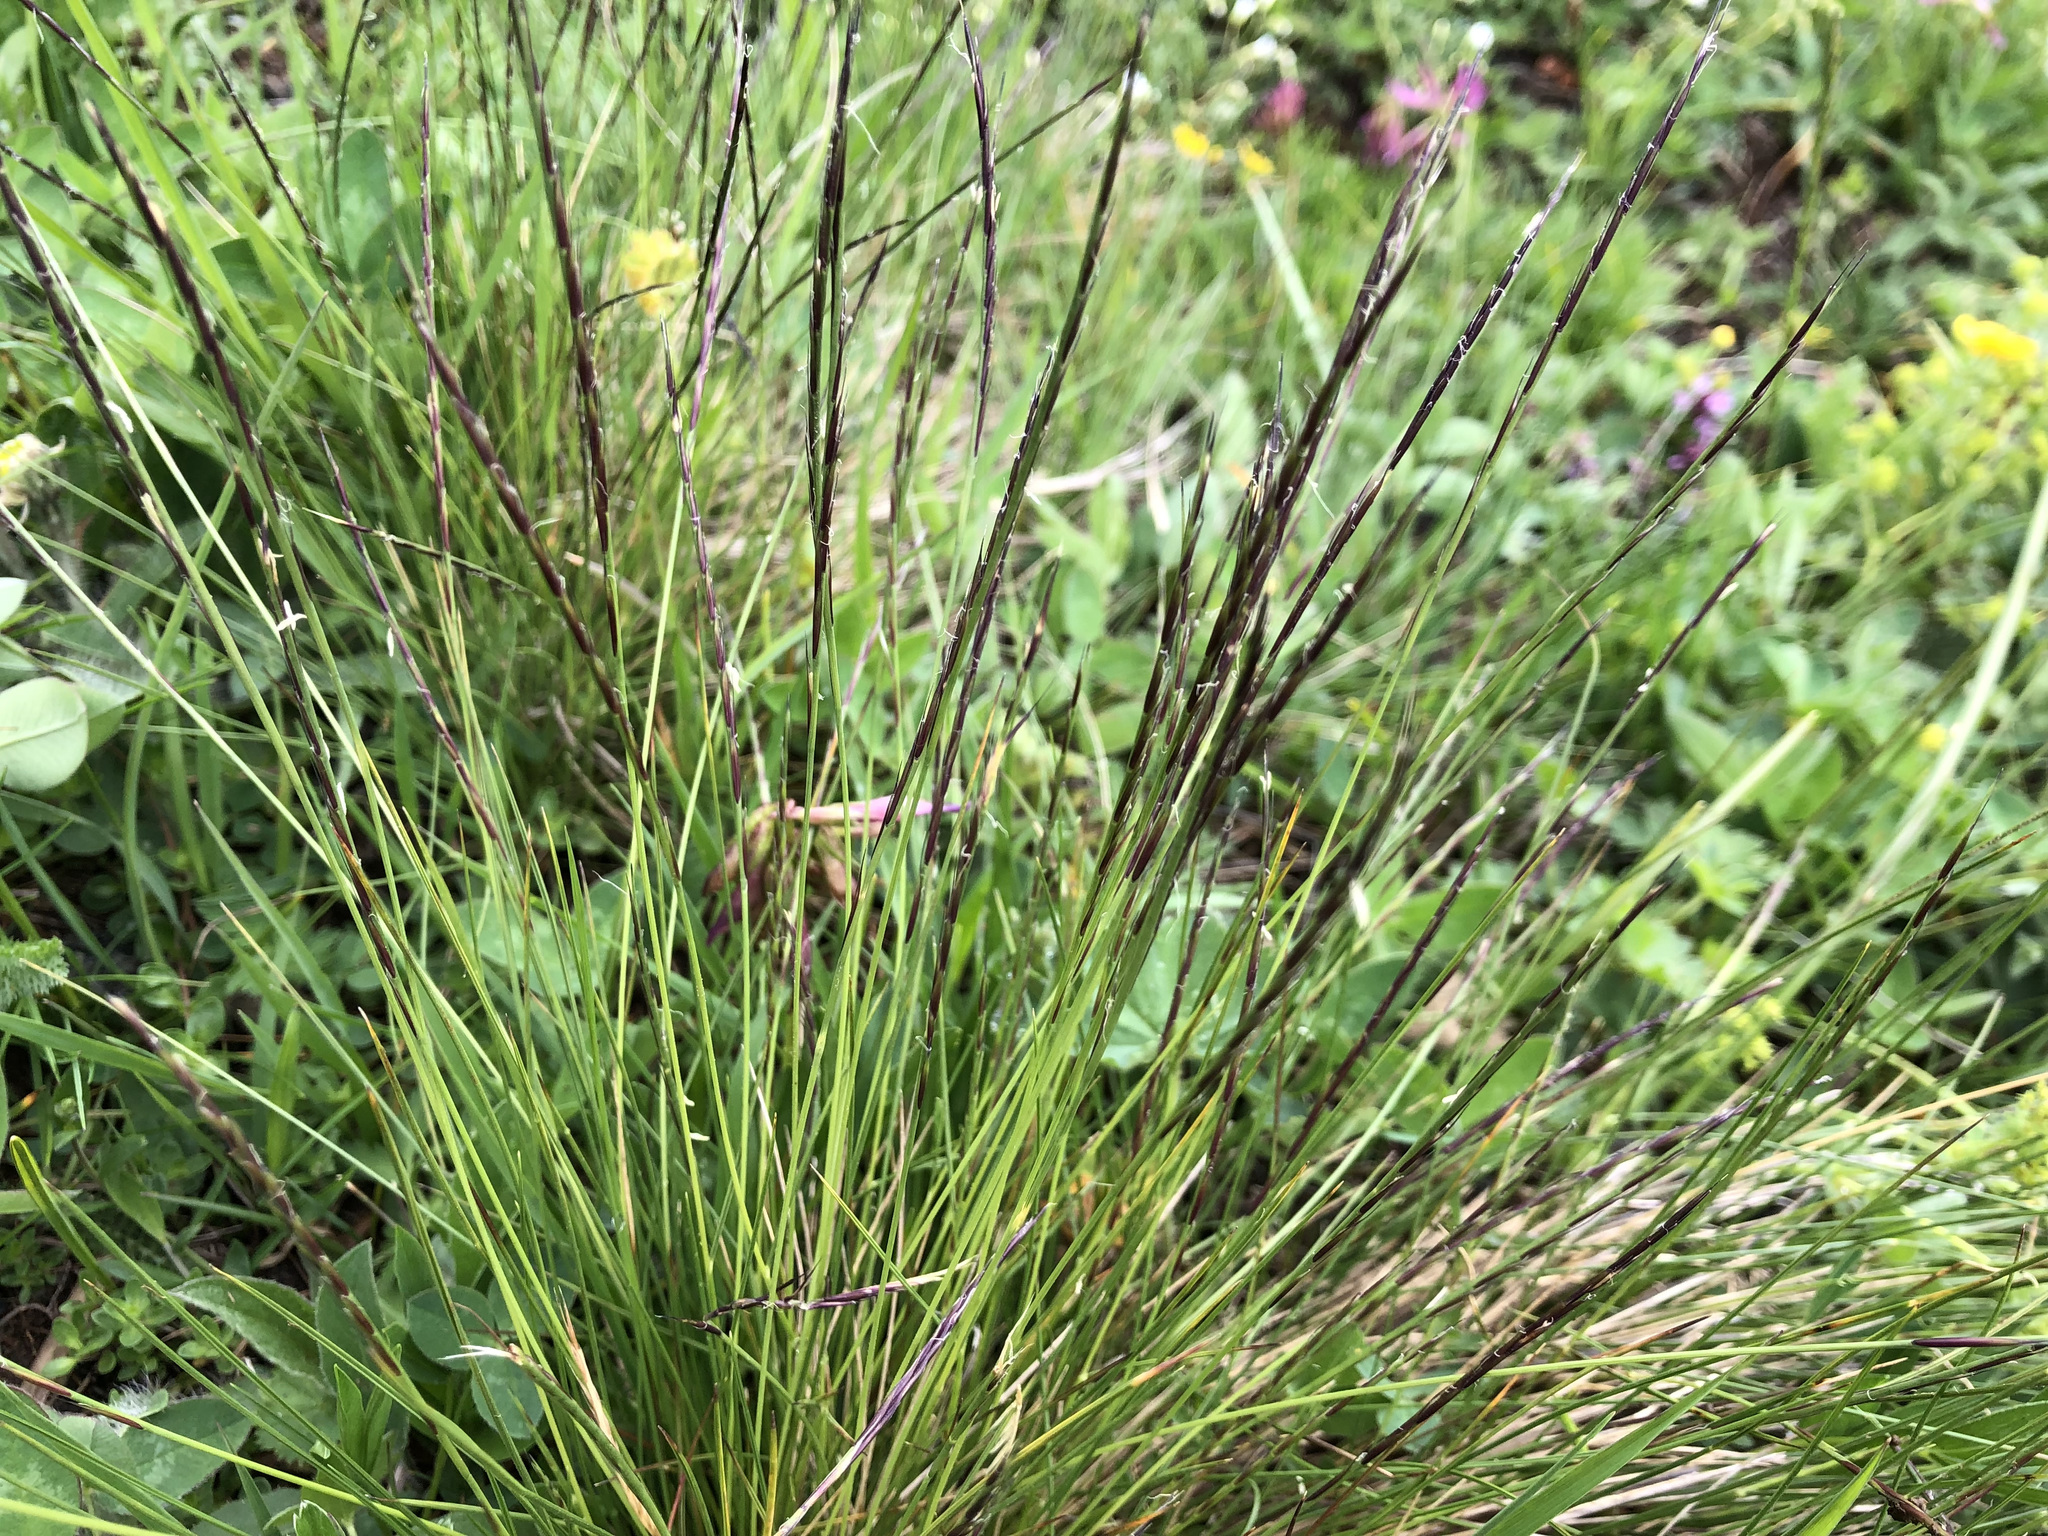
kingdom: Plantae
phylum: Tracheophyta
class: Liliopsida
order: Poales
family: Poaceae
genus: Nardus
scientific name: Nardus stricta
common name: Mat-grass
